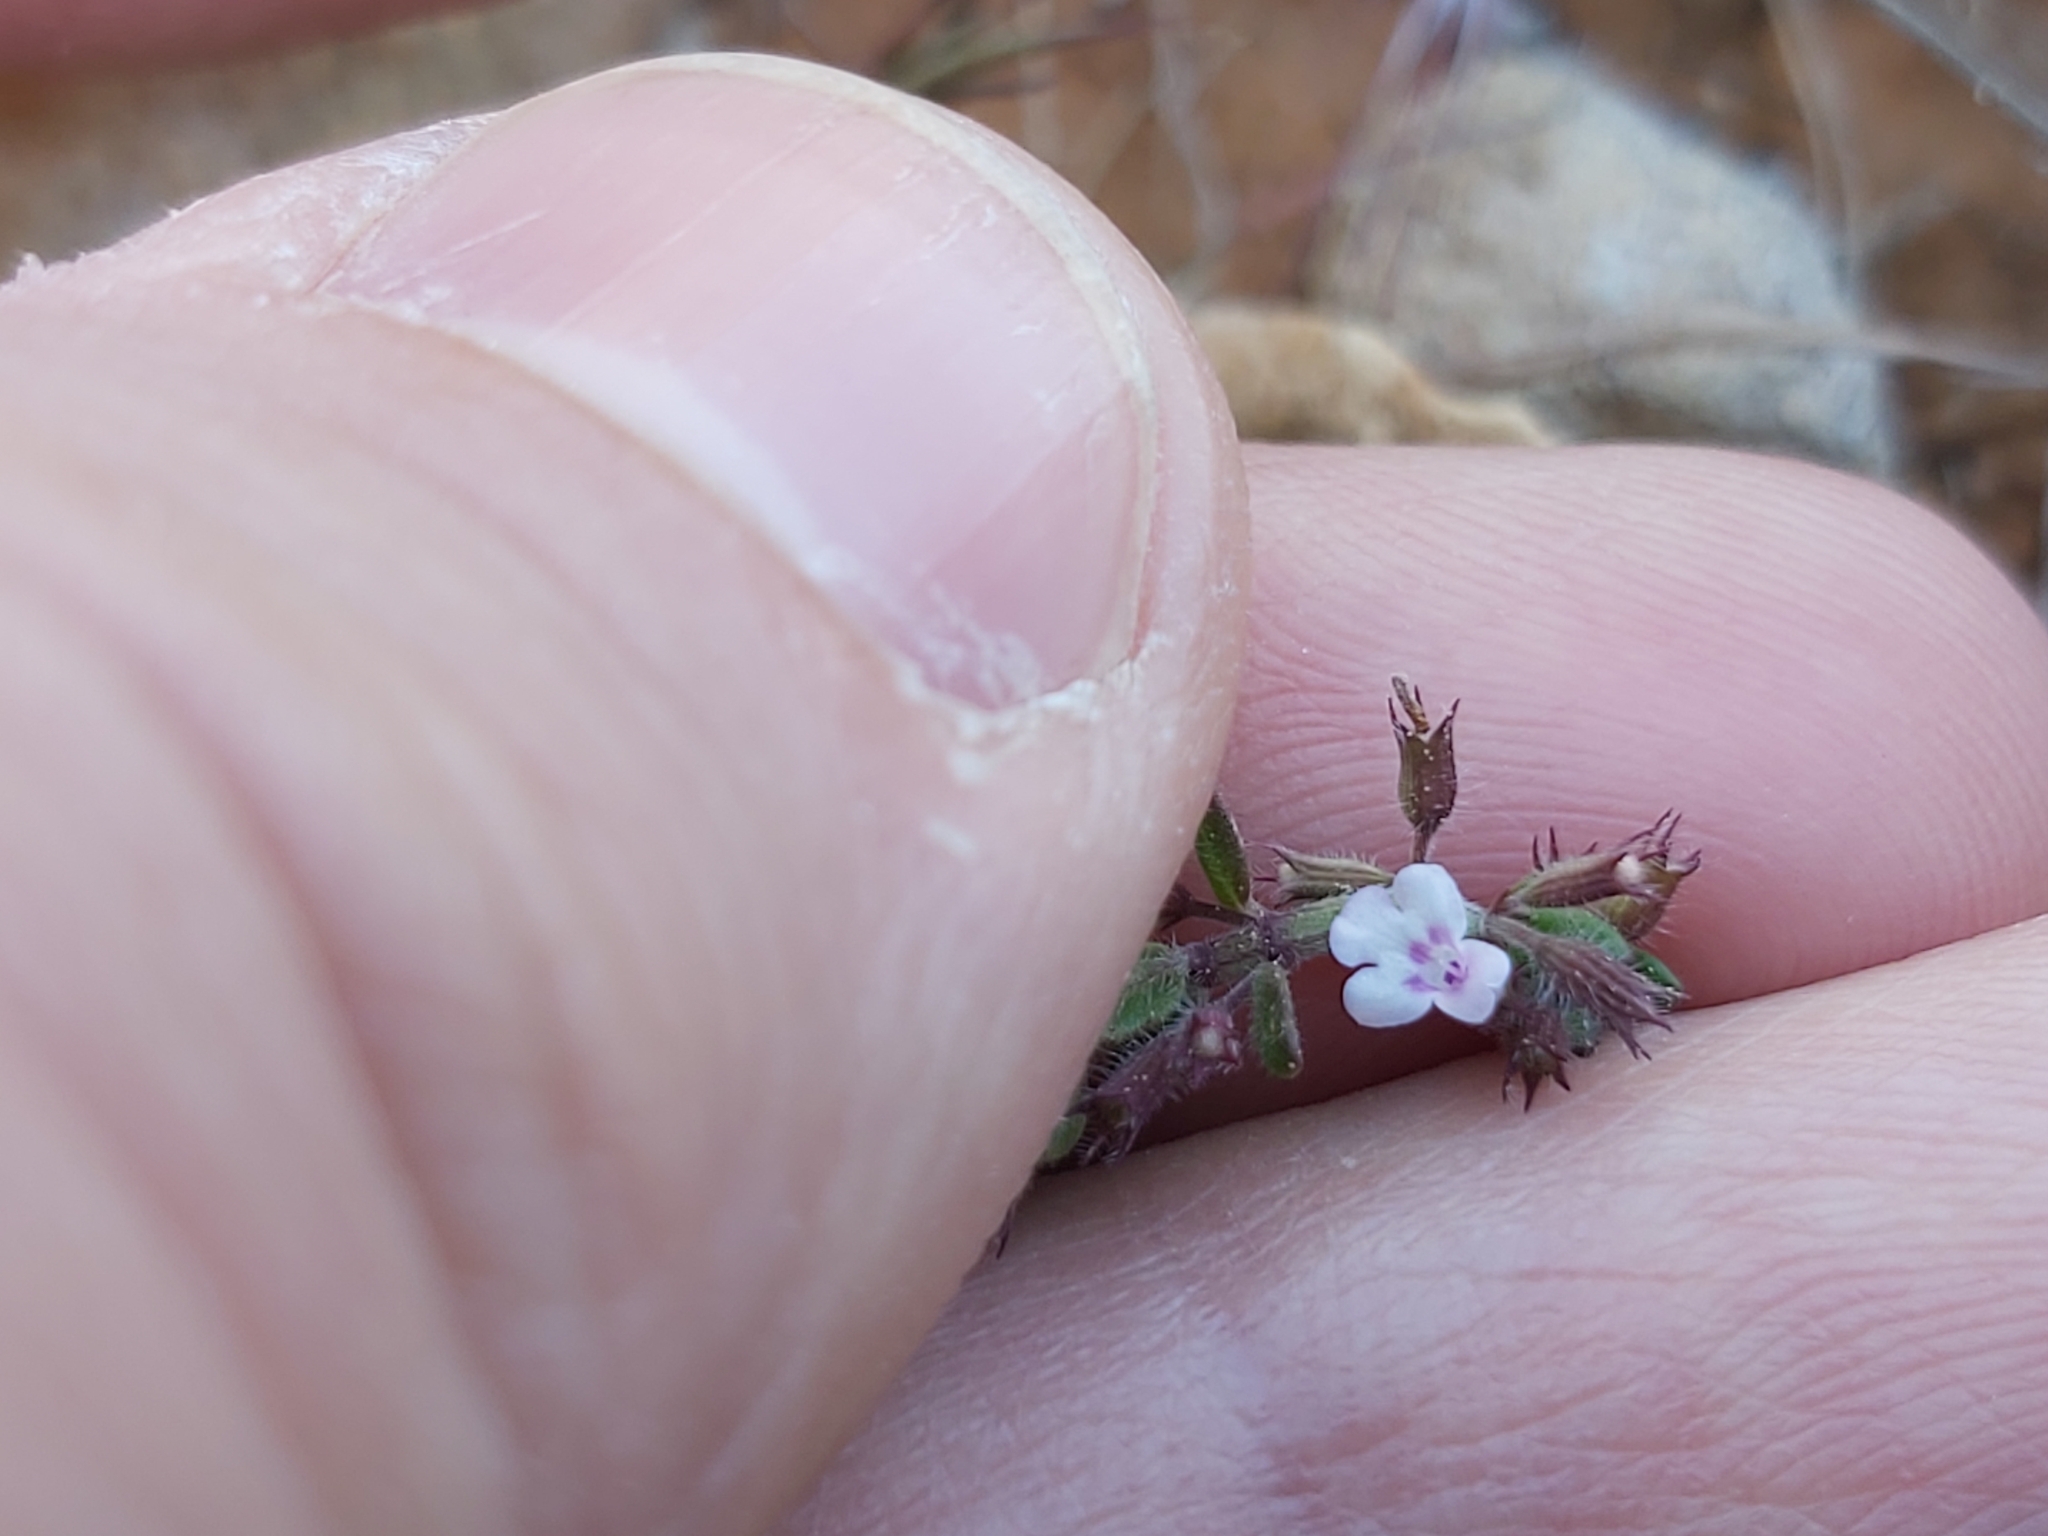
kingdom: Plantae
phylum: Tracheophyta
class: Magnoliopsida
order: Lamiales
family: Lamiaceae
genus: Micromeria
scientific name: Micromeria graeca
